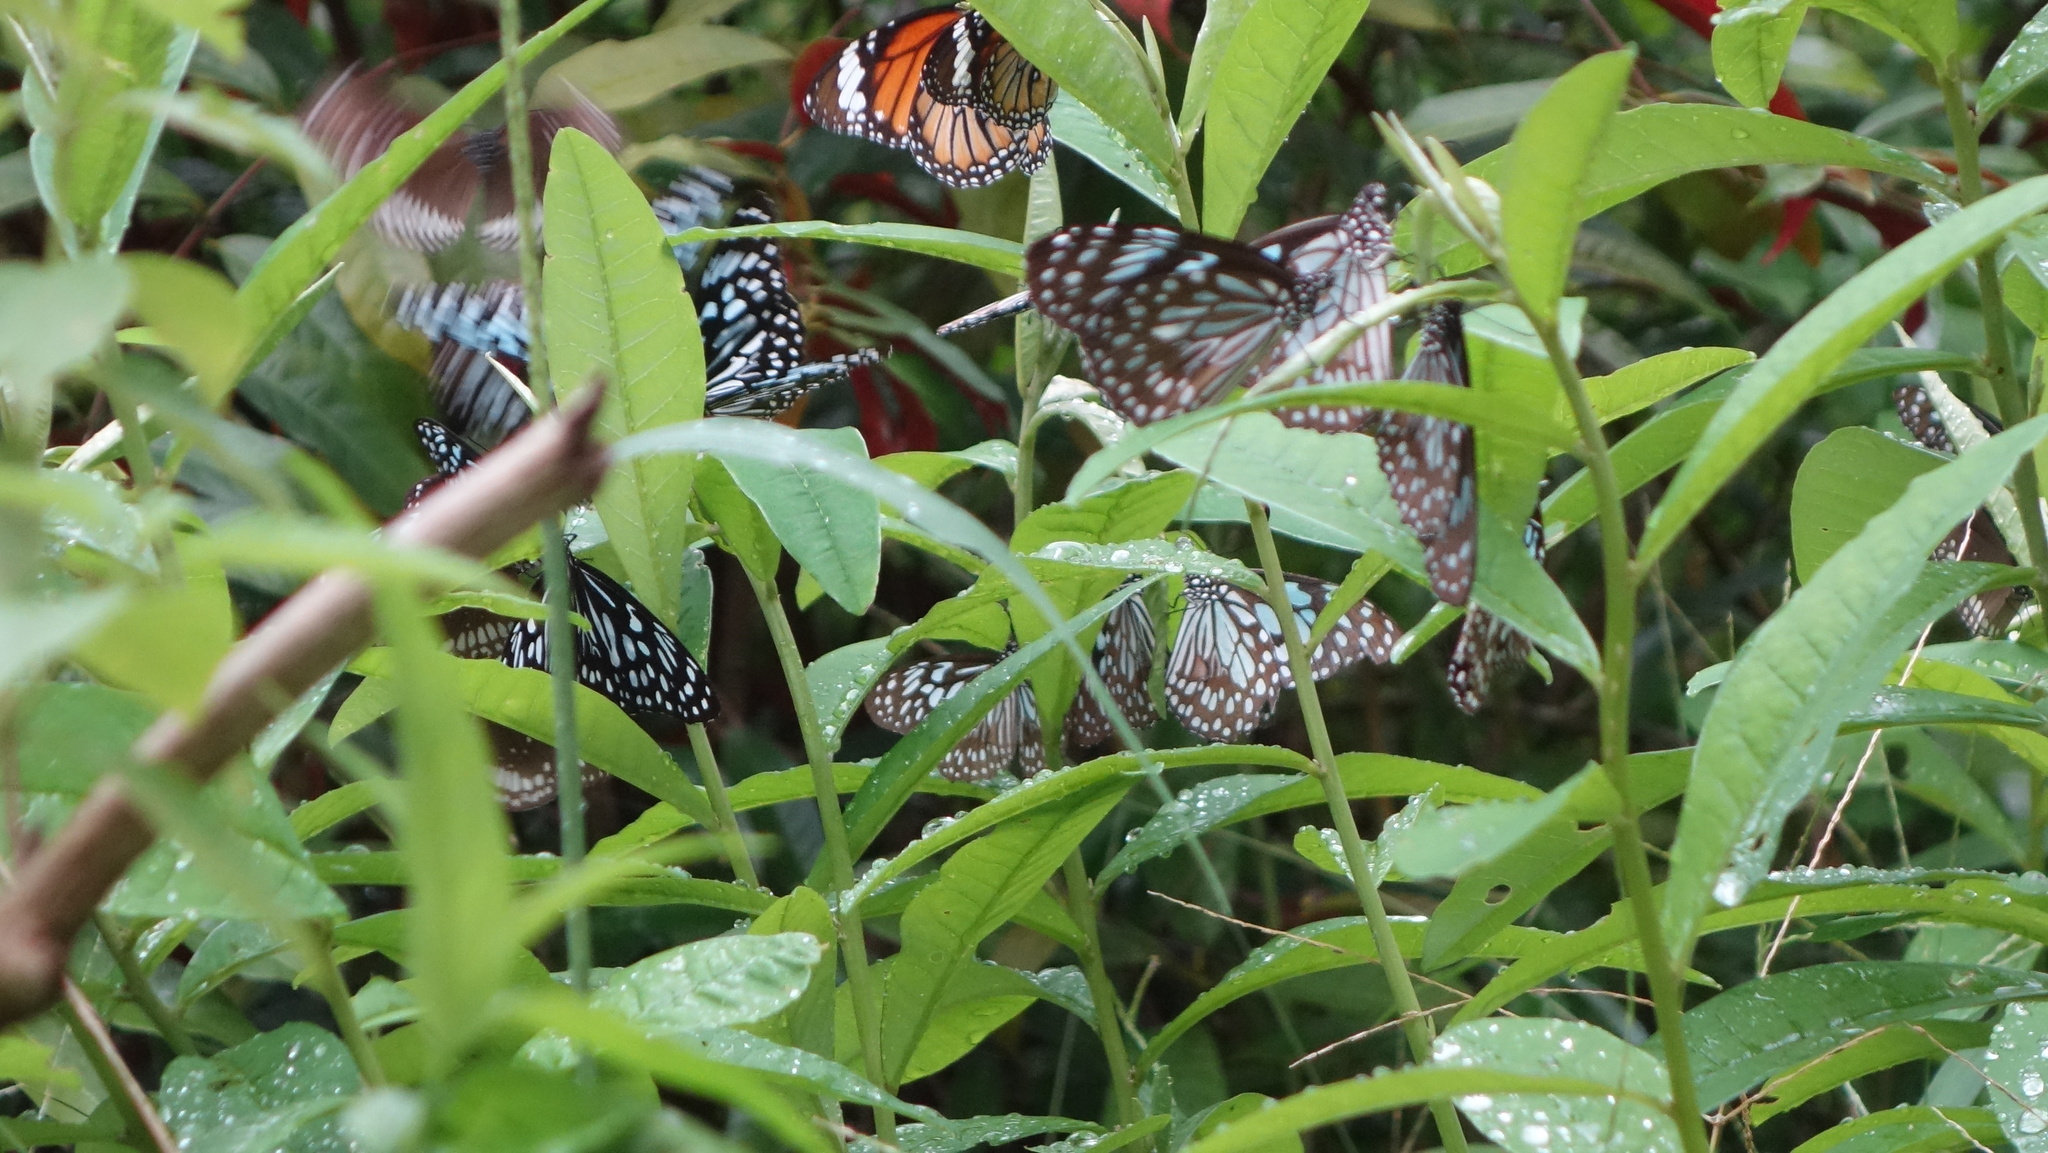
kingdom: Animalia
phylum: Arthropoda
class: Insecta
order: Lepidoptera
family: Nymphalidae
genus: Tirumala
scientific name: Tirumala limniace
